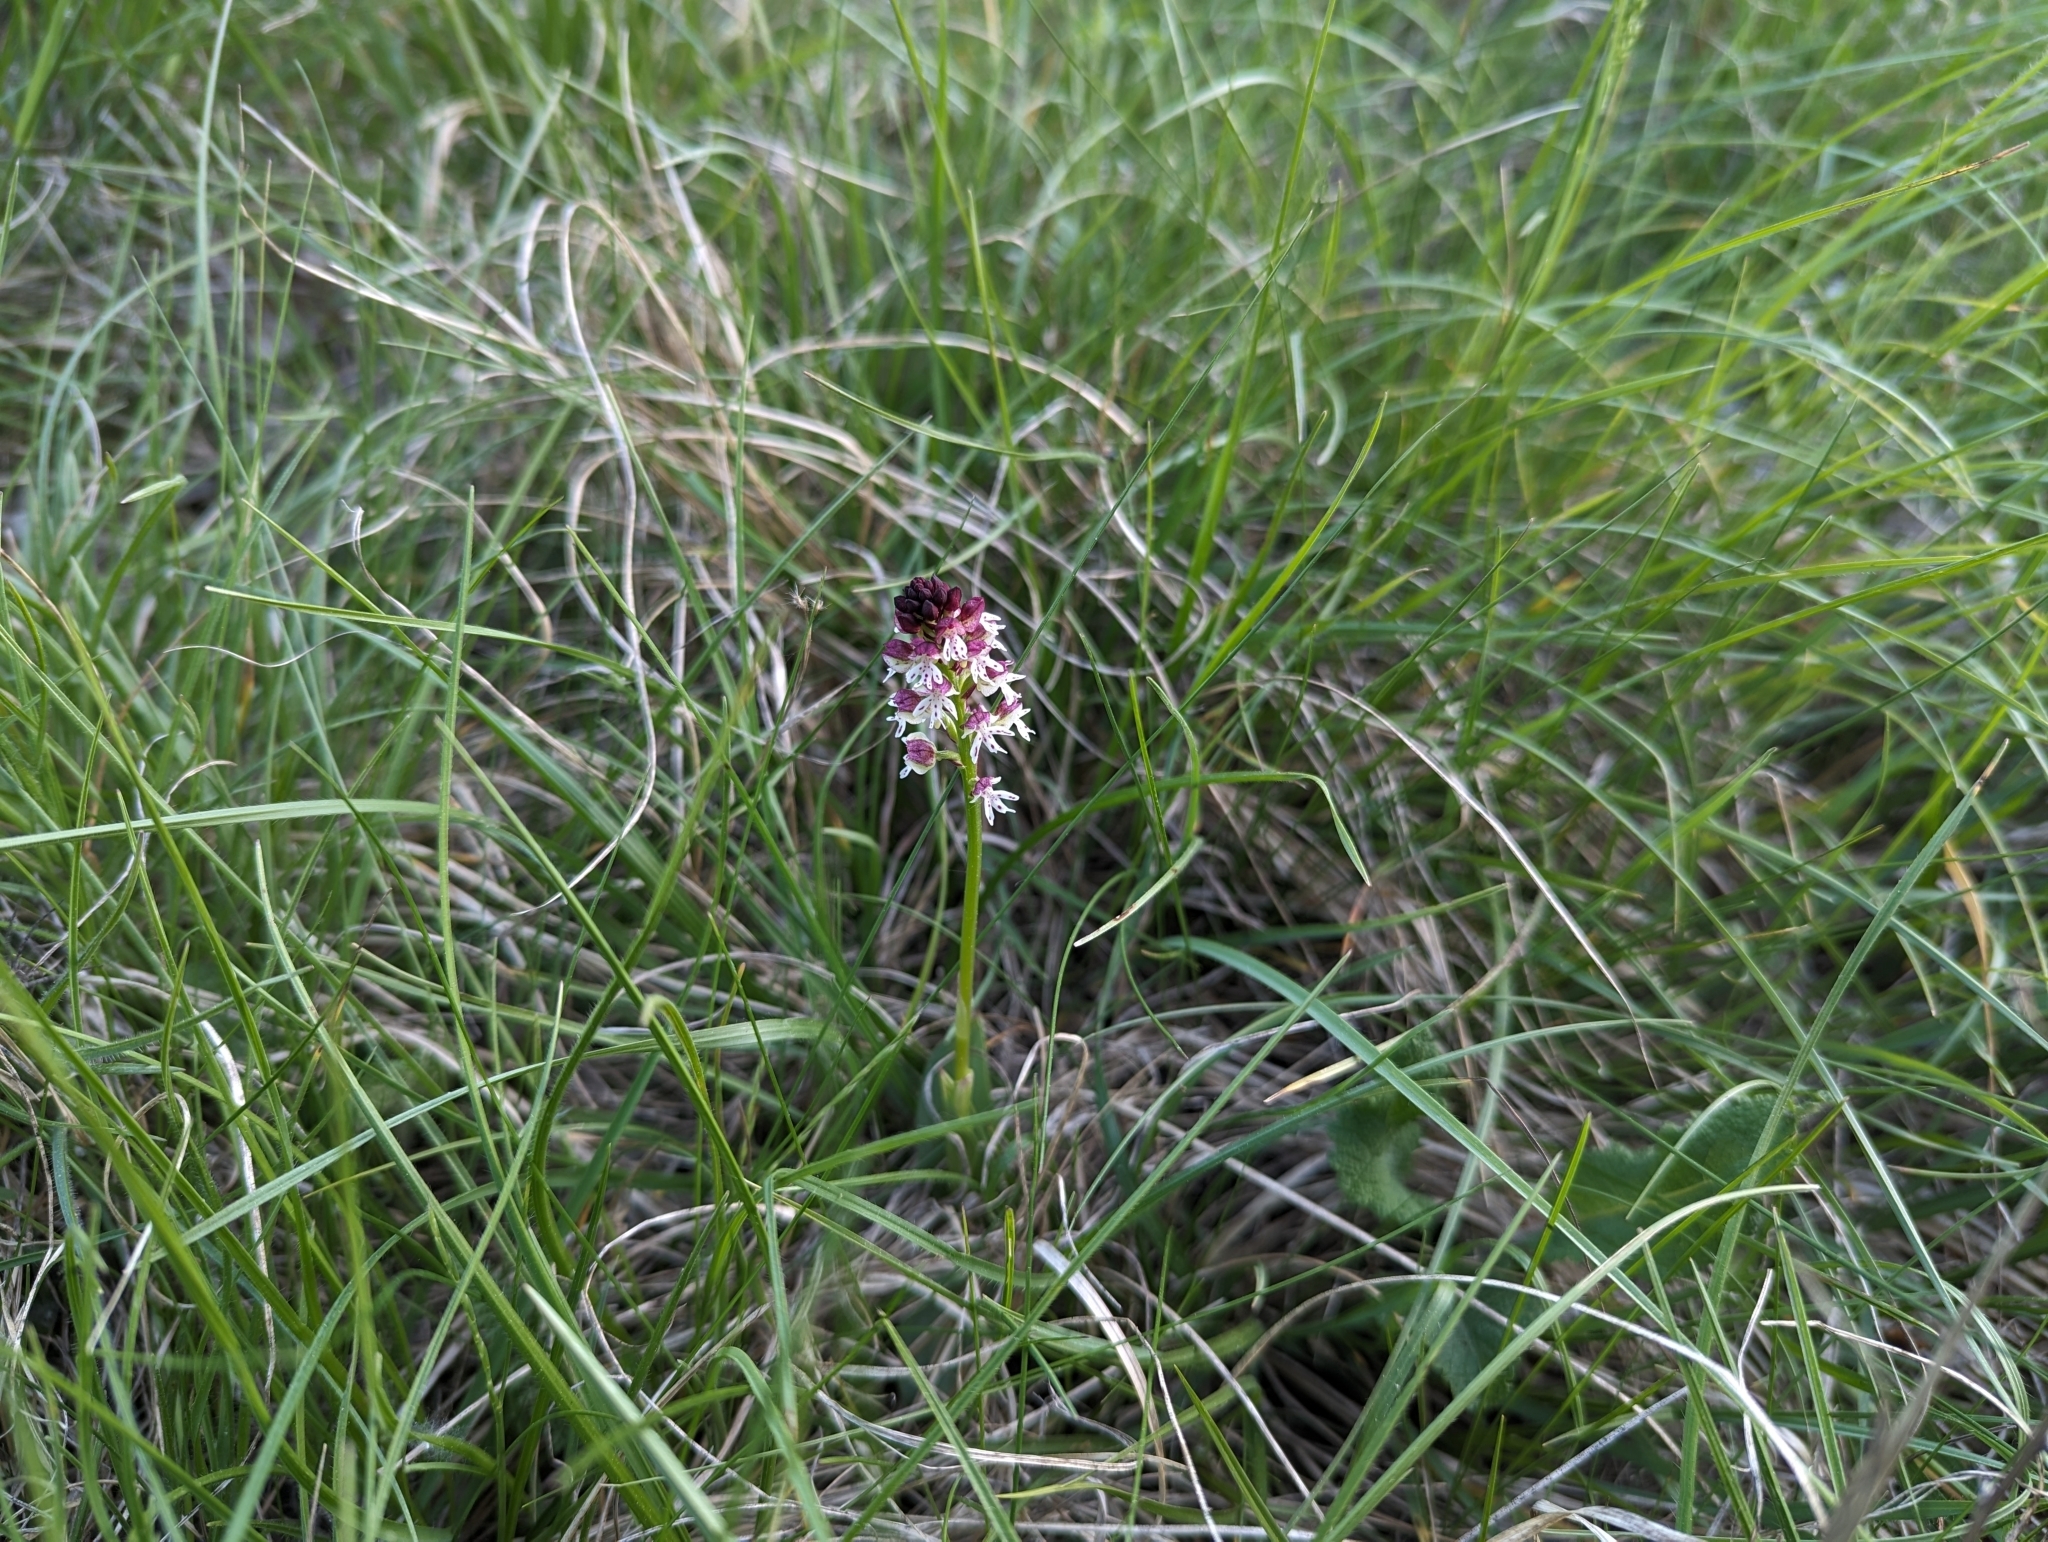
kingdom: Plantae
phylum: Tracheophyta
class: Liliopsida
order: Asparagales
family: Orchidaceae
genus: Neotinea
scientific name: Neotinea ustulata
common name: Burnt orchid
